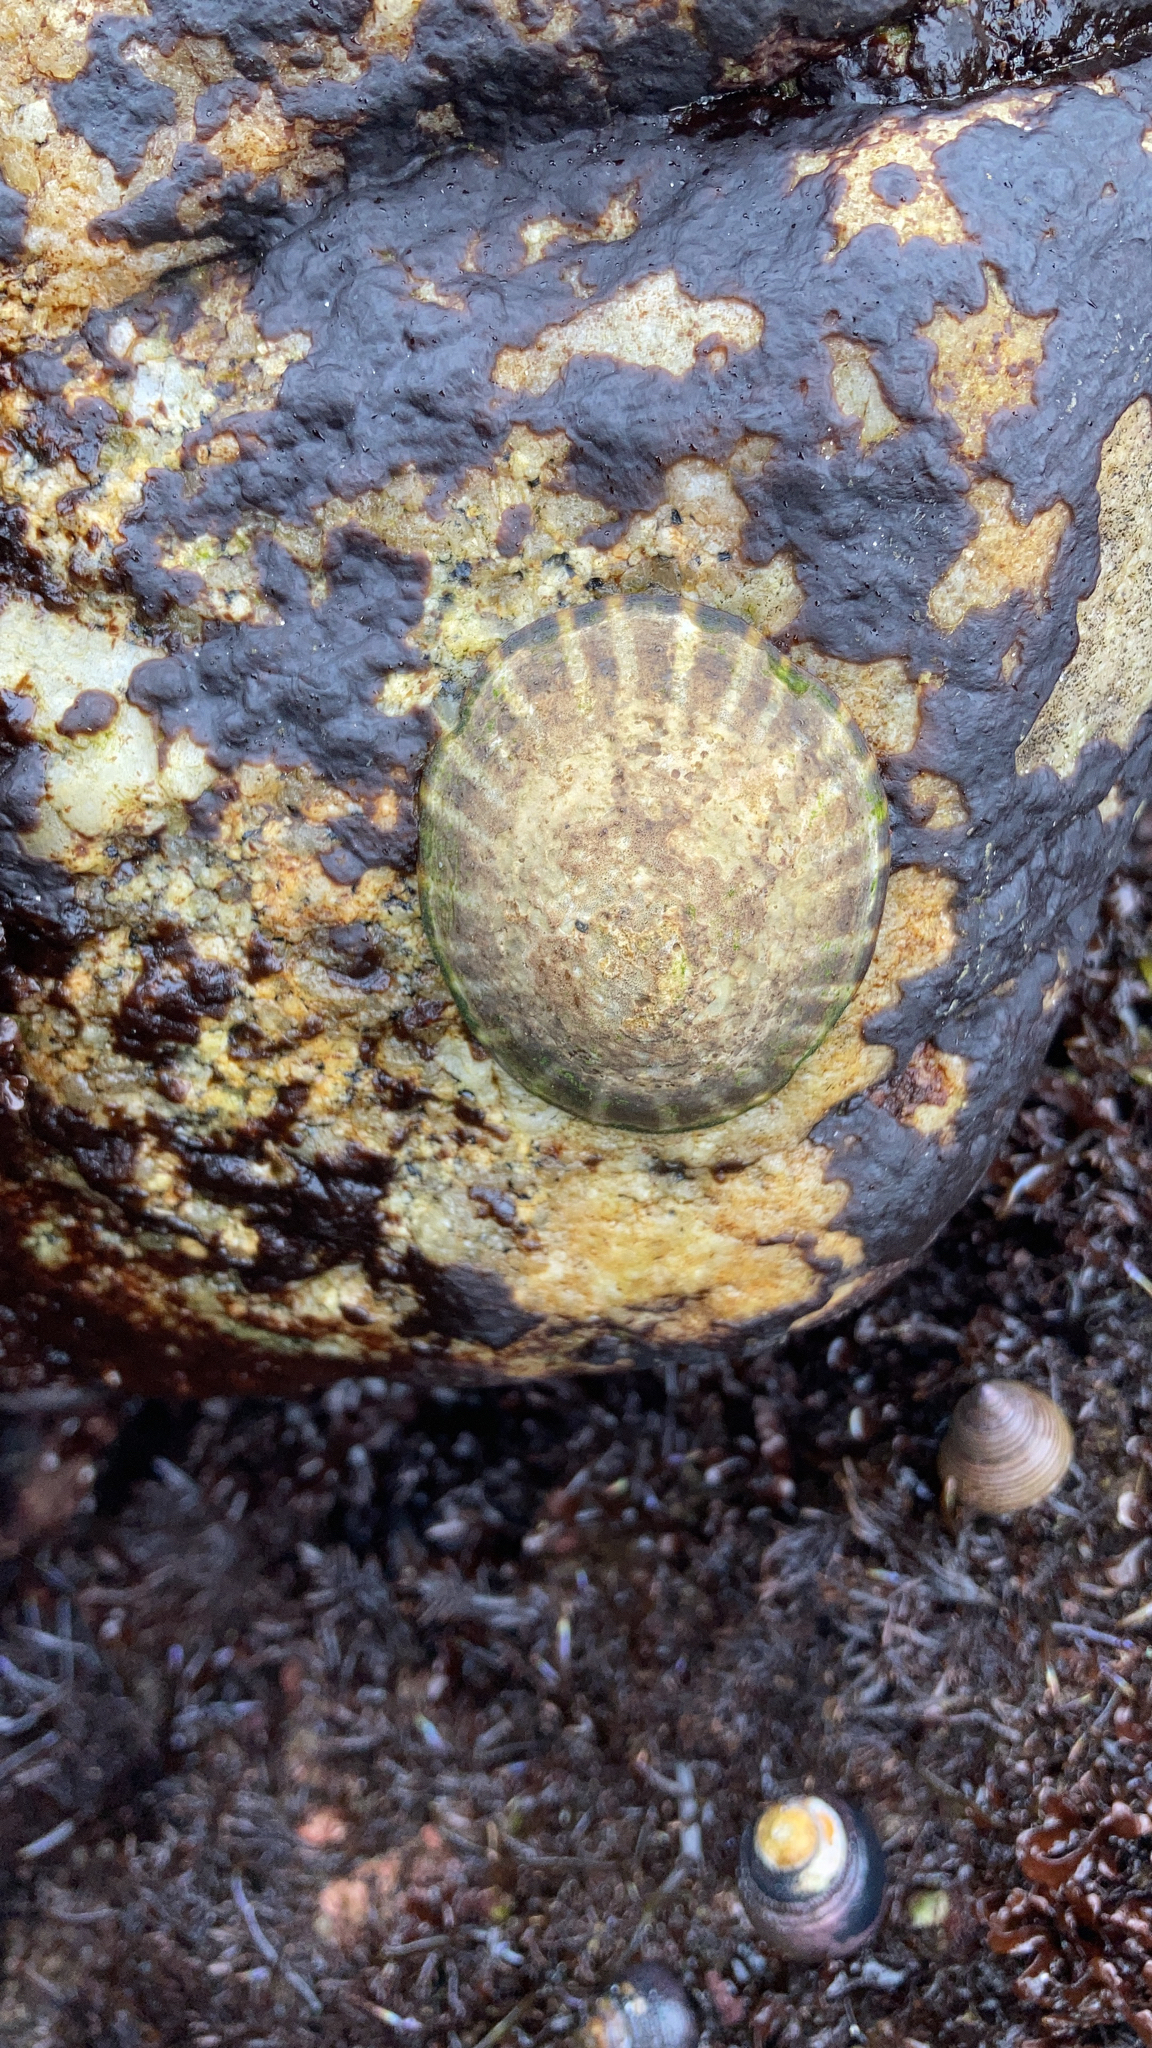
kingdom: Animalia
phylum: Mollusca
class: Gastropoda
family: Lottiidae
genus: Lottia
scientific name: Lottia gigantea
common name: Owl limpet
